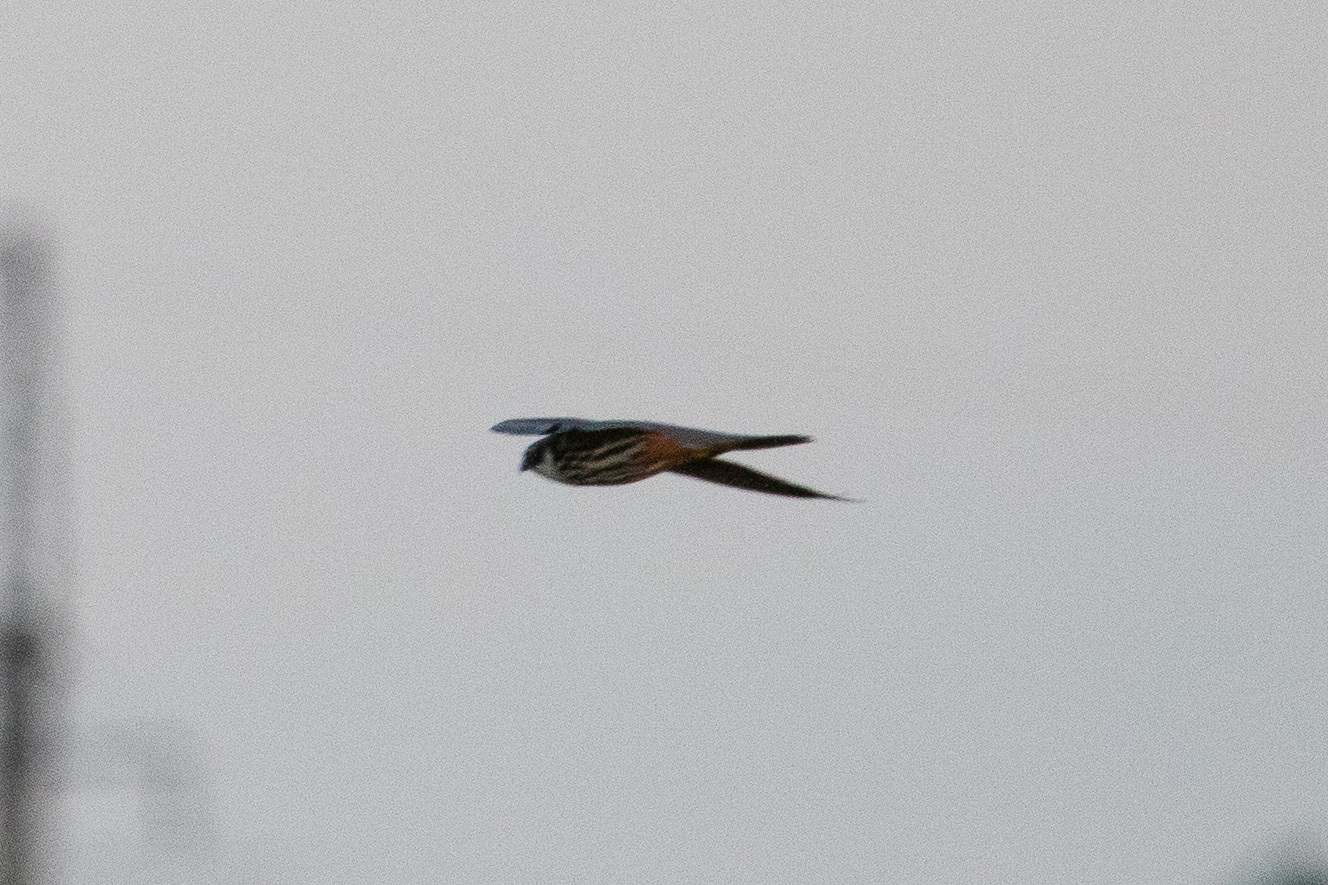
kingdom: Animalia
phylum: Chordata
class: Aves
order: Falconiformes
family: Falconidae
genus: Falco
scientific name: Falco subbuteo
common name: Eurasian hobby
